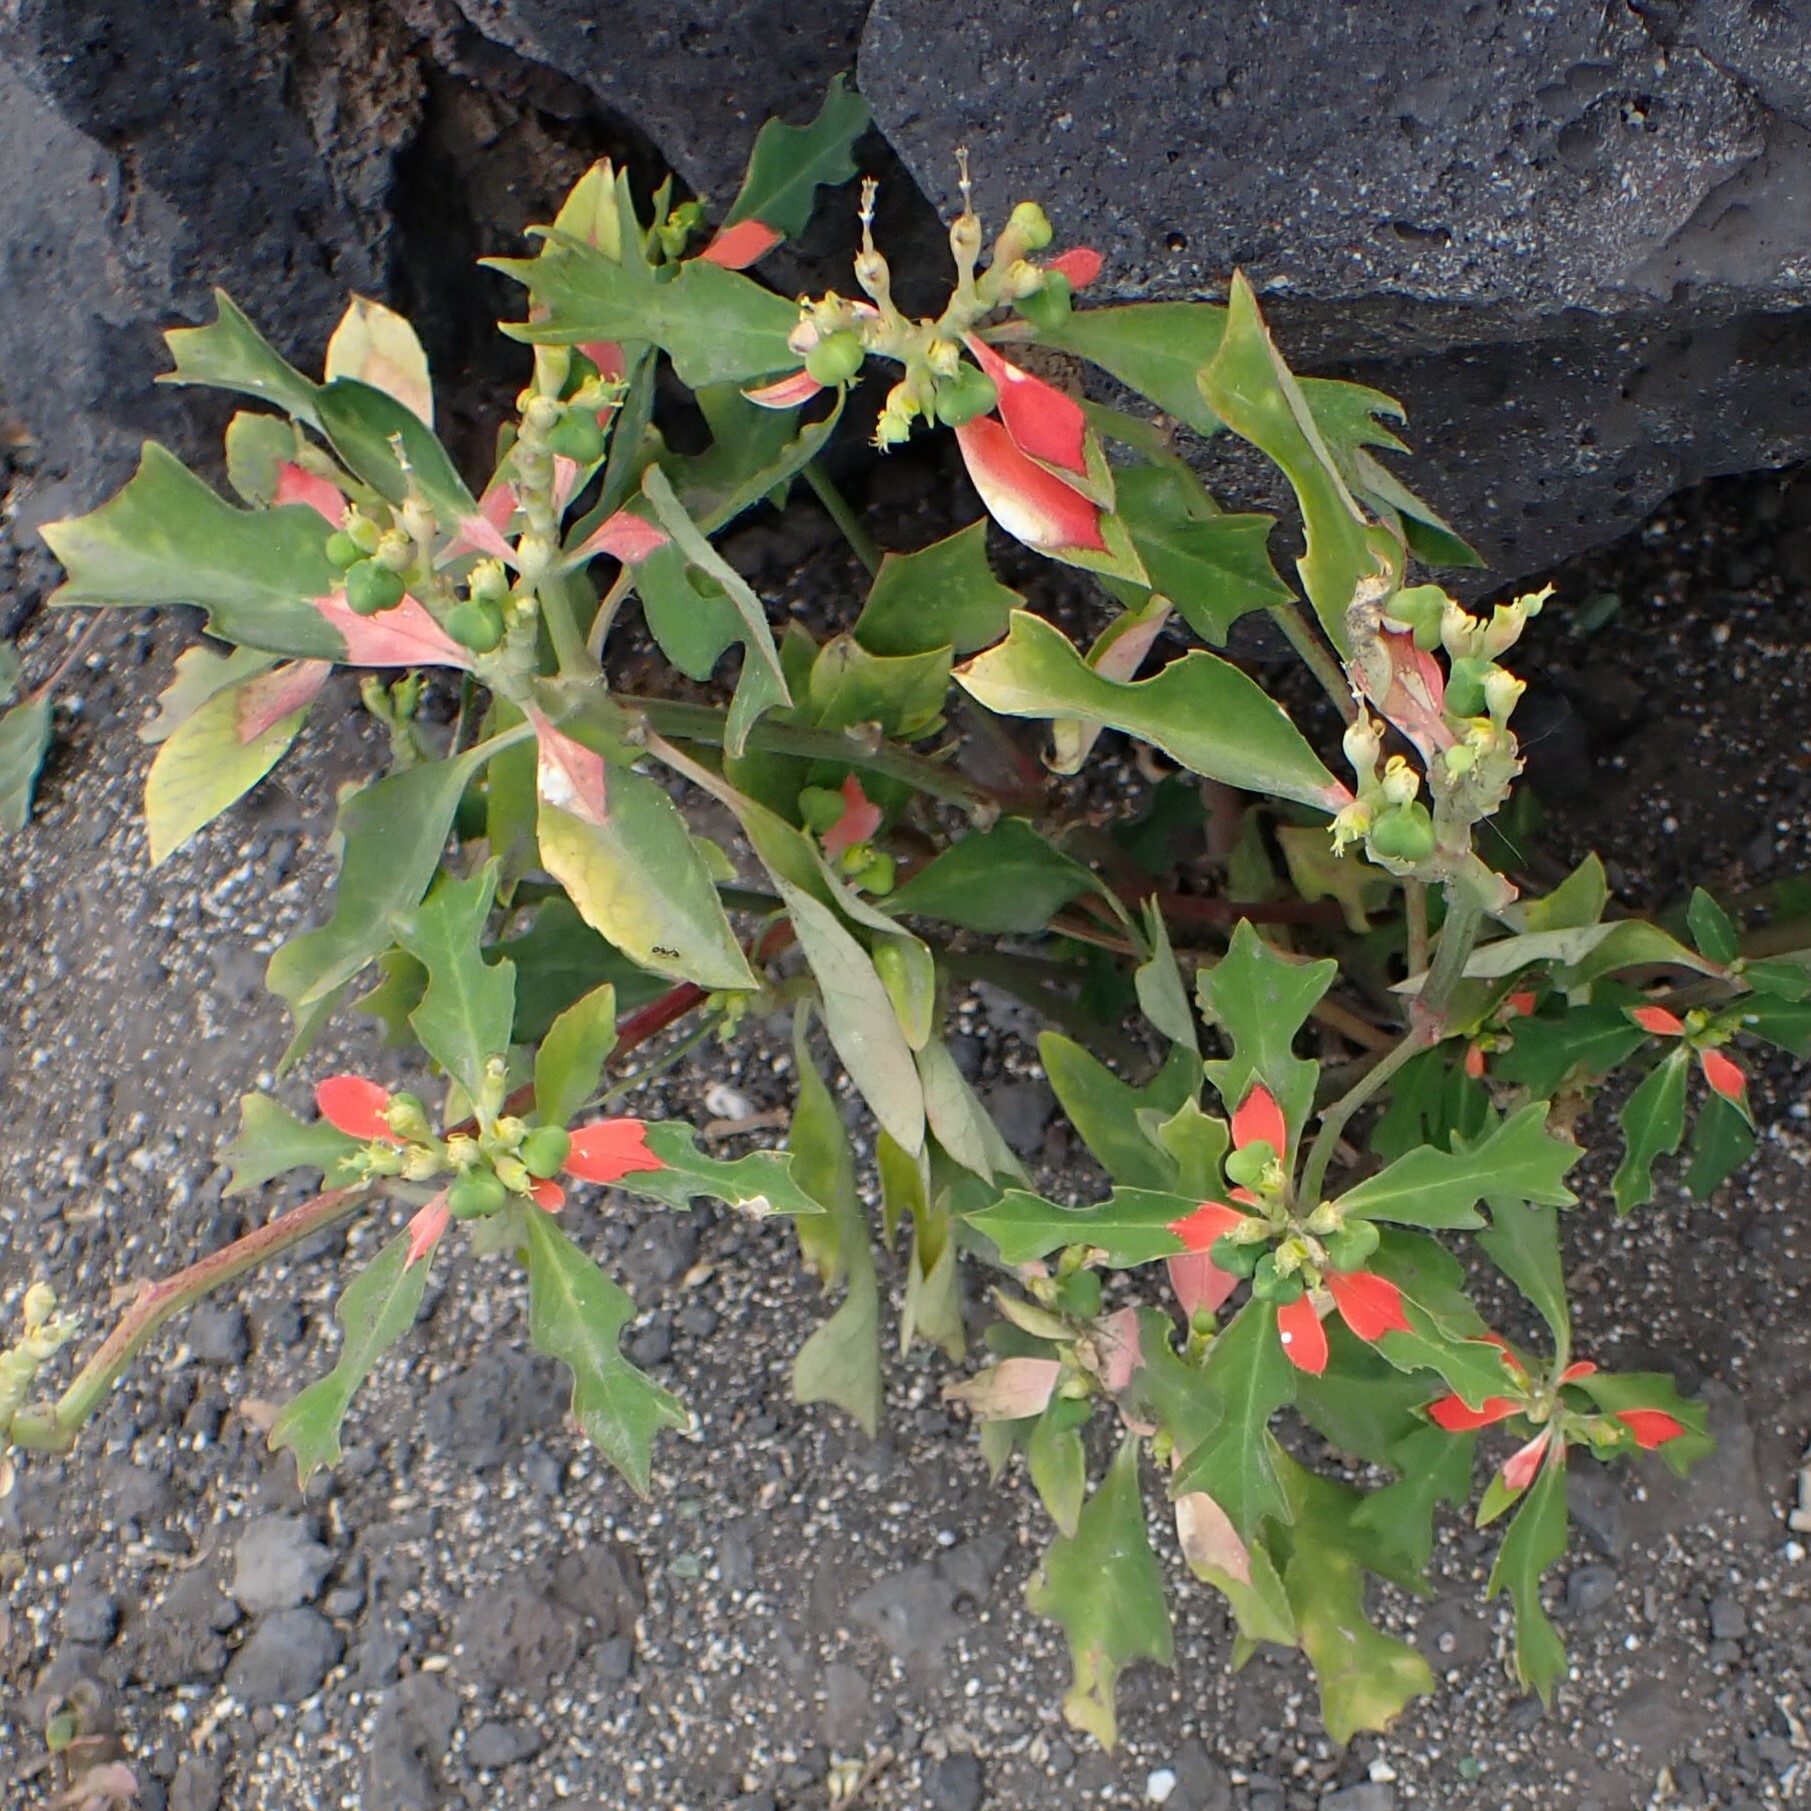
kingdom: Plantae
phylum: Tracheophyta
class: Magnoliopsida
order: Malpighiales
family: Euphorbiaceae
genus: Euphorbia
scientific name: Euphorbia heterophylla
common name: Mexican fireplant
